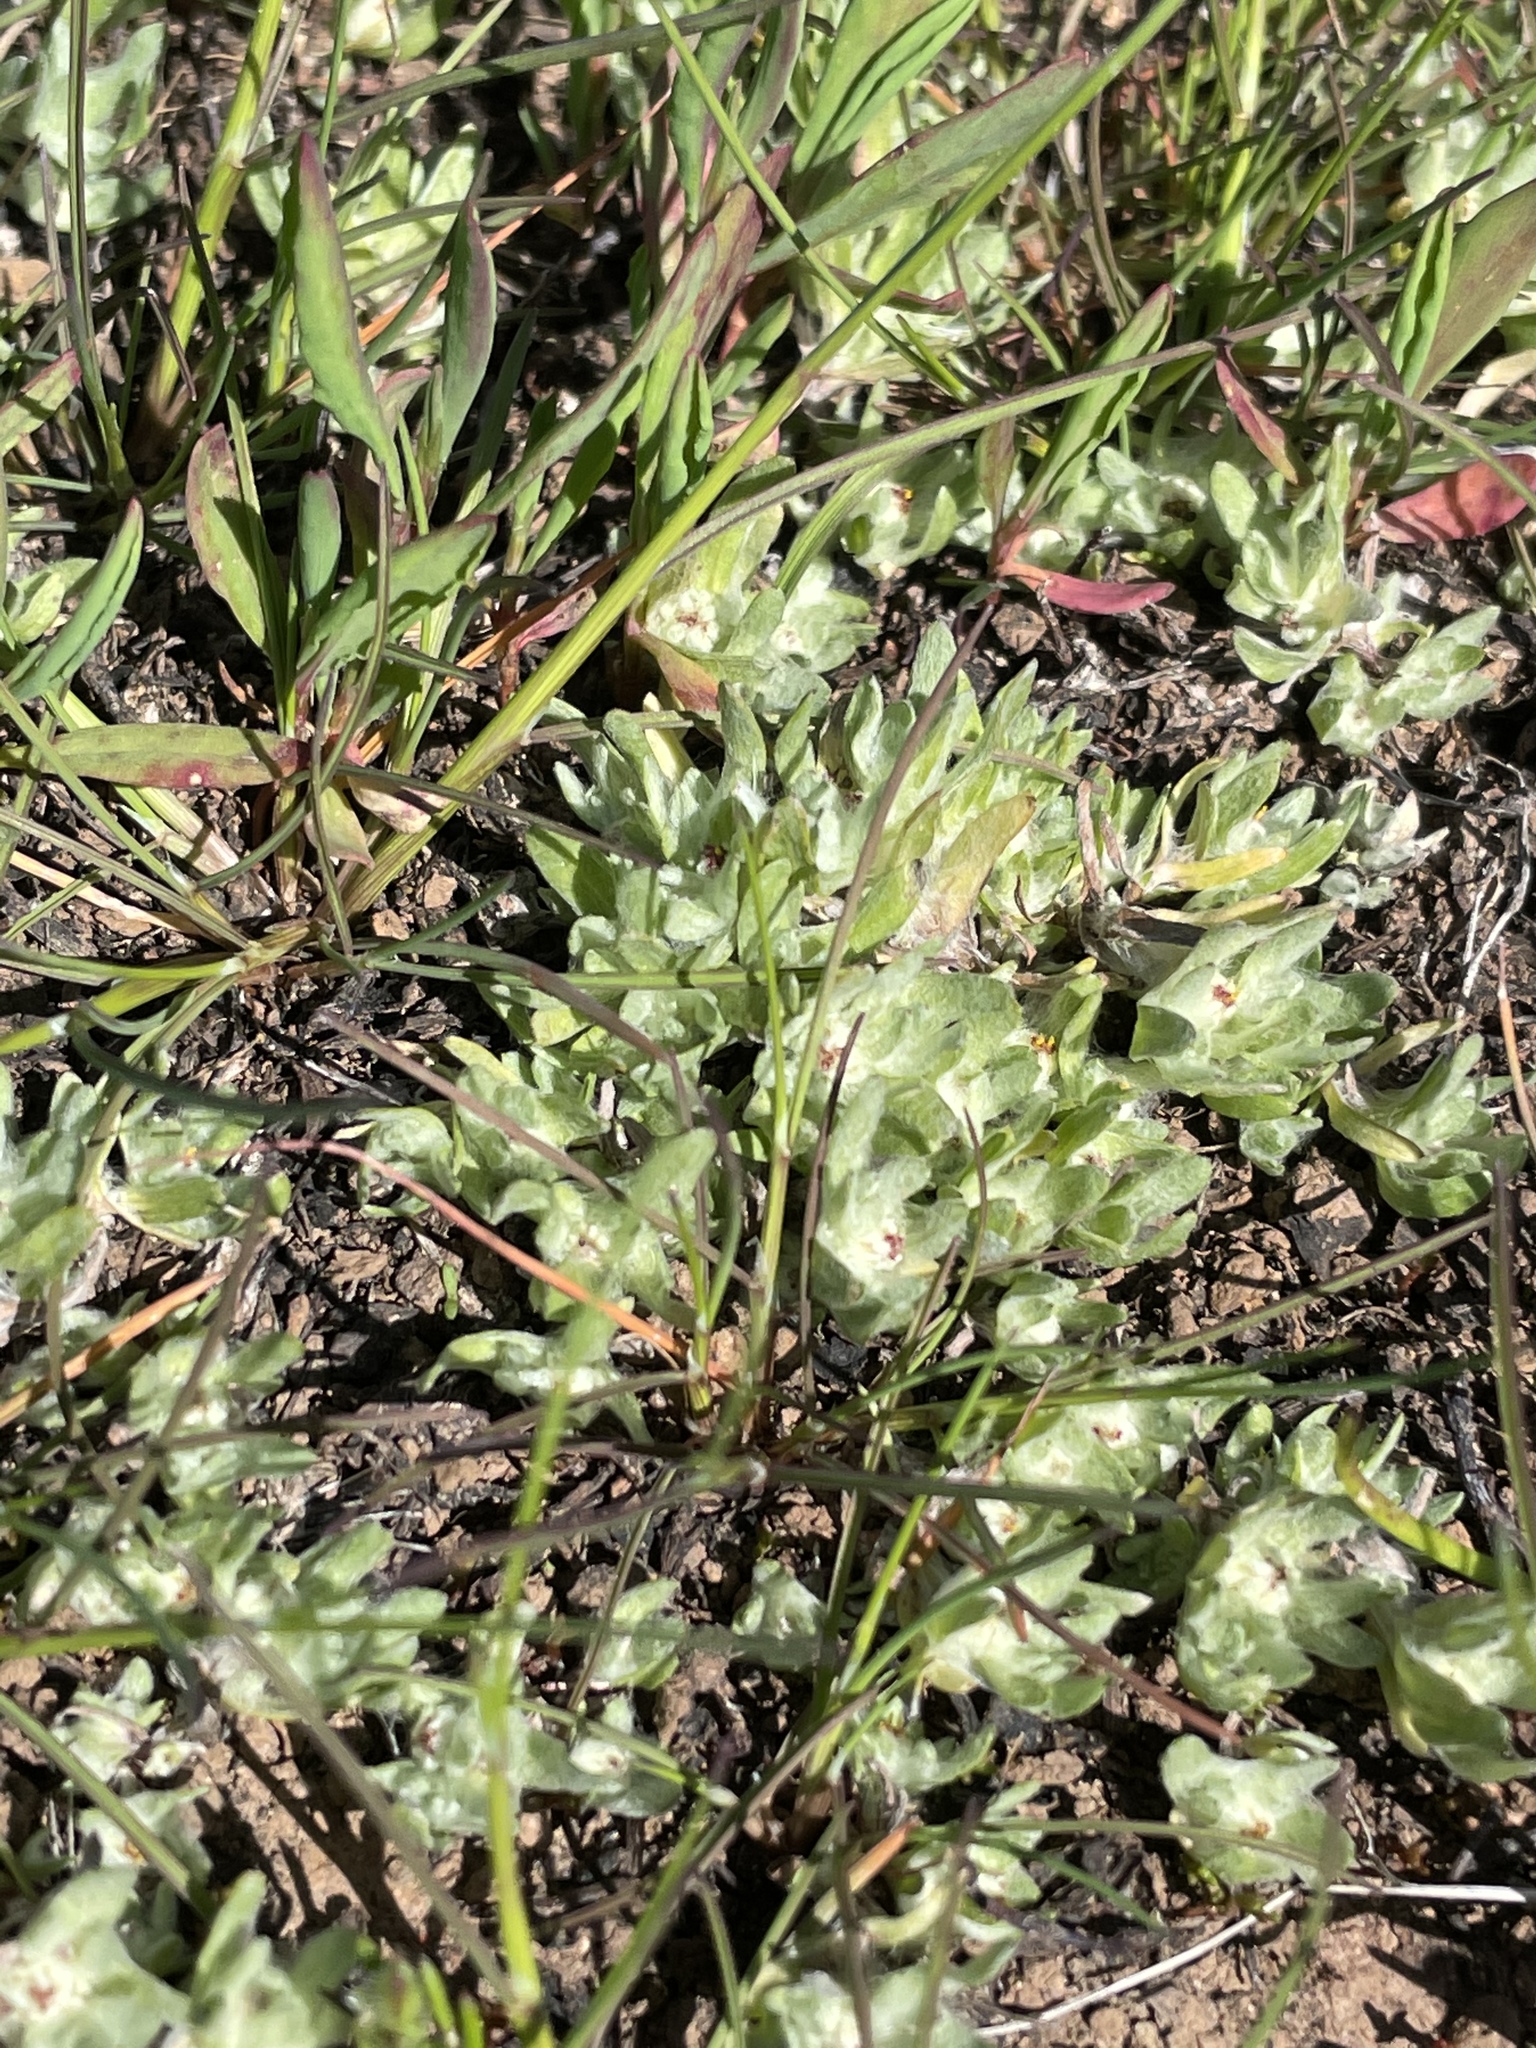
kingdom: Plantae
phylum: Tracheophyta
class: Magnoliopsida
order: Asterales
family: Asteraceae
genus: Psilocarphus
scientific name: Psilocarphus brevissimus
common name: Dwarf woollyheads
